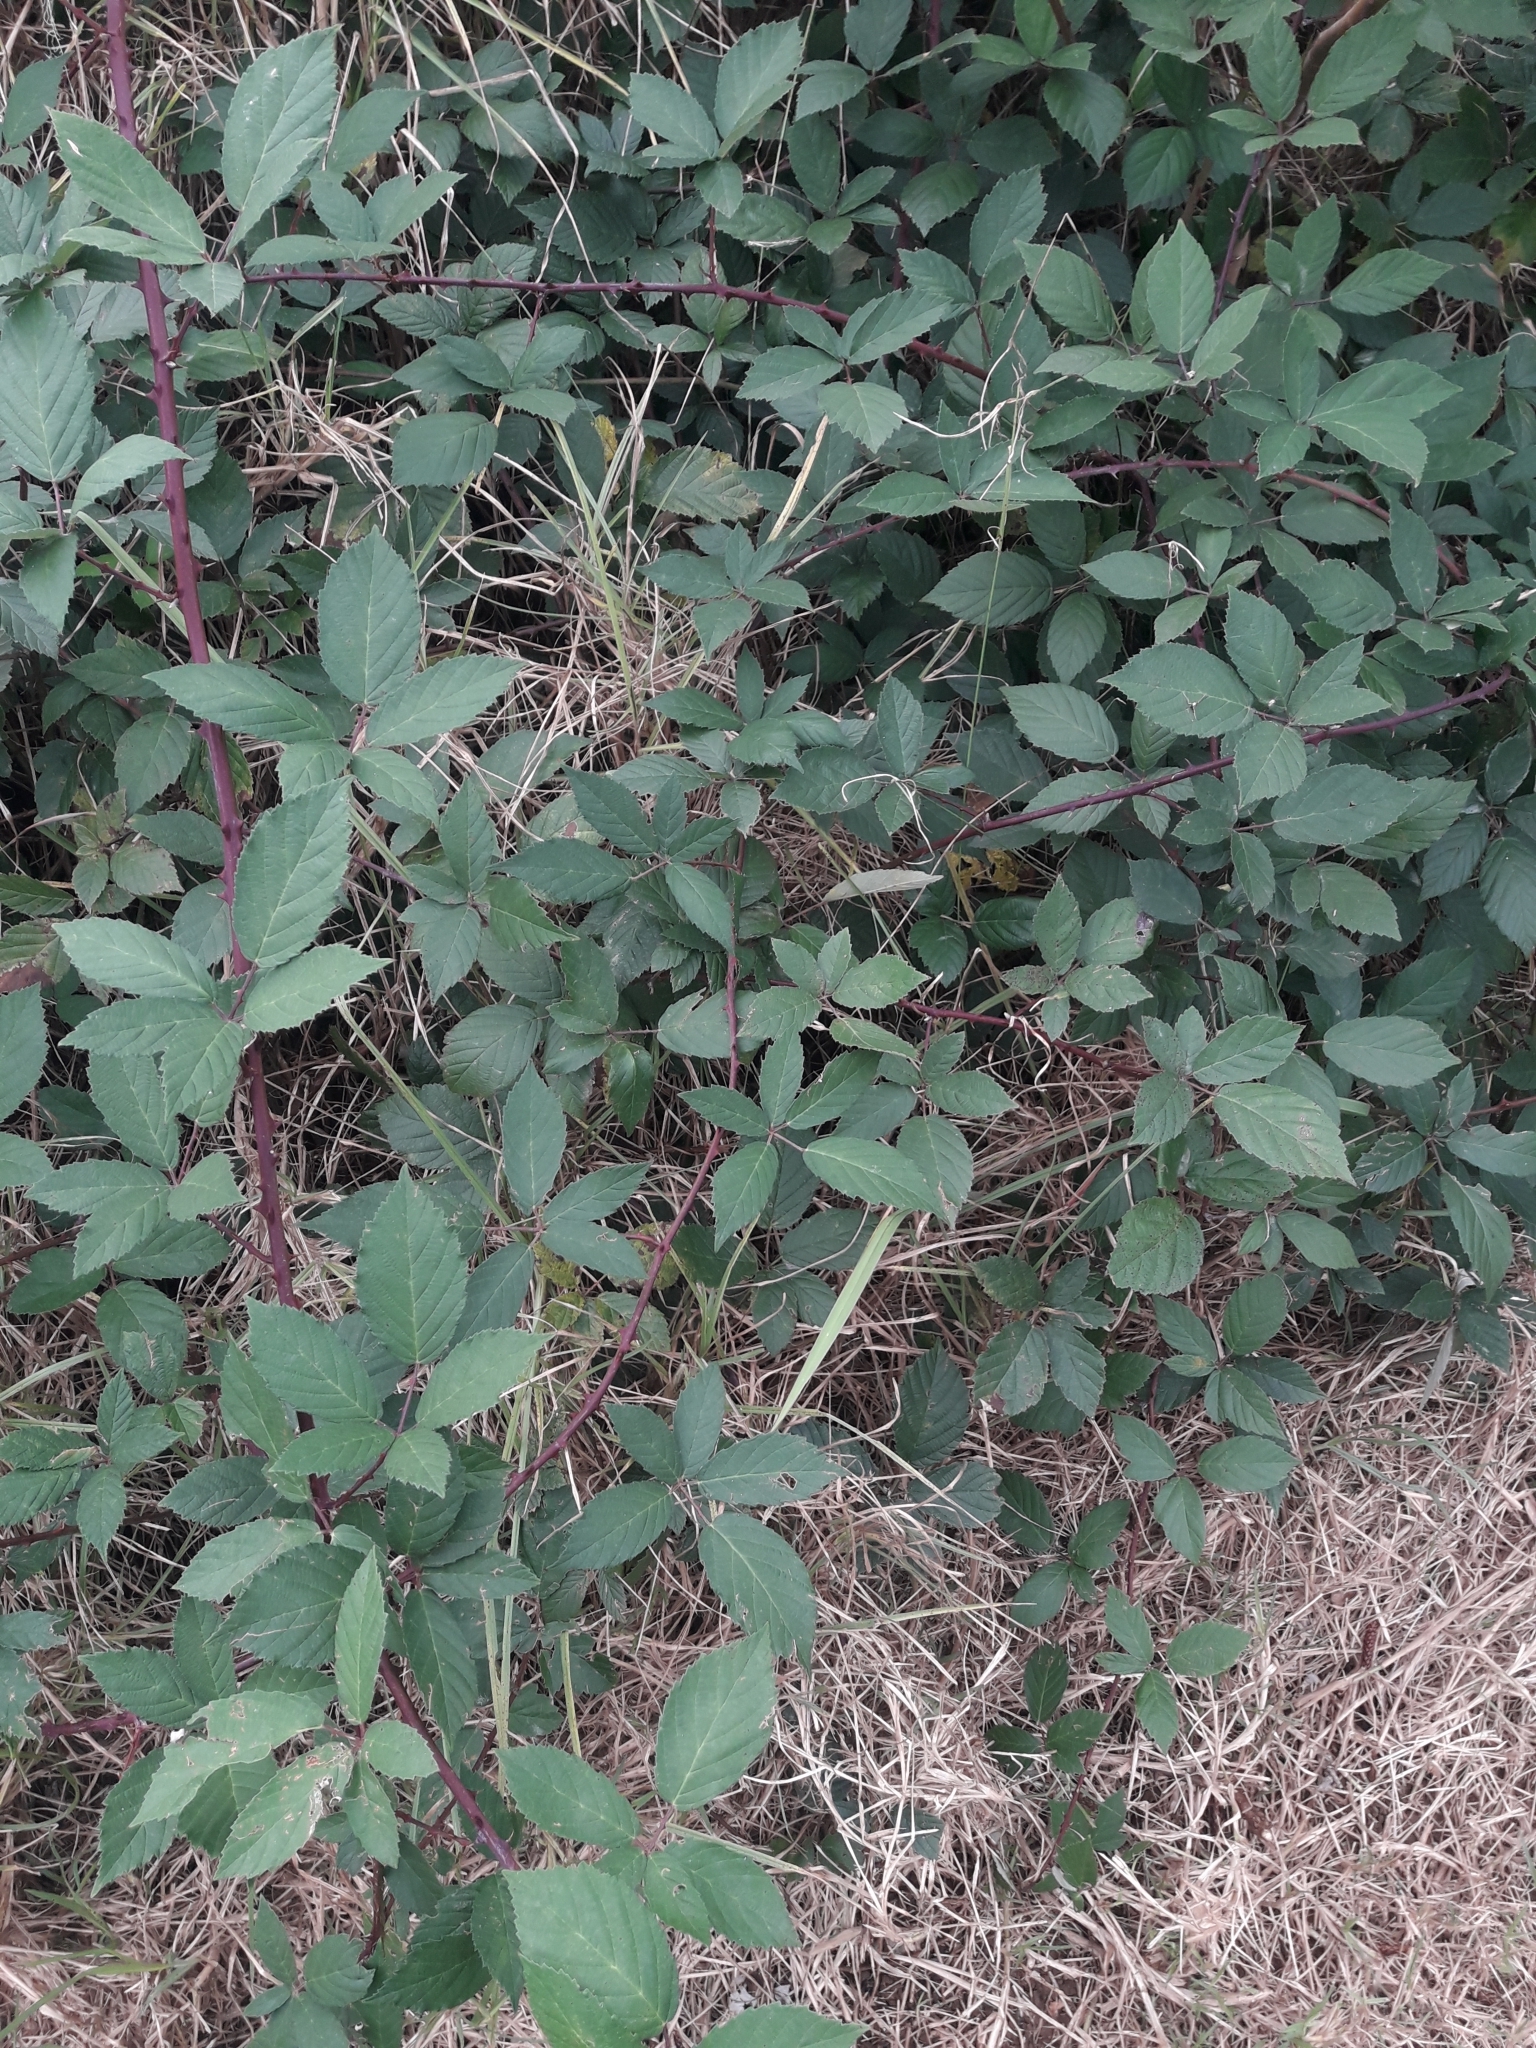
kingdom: Plantae
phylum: Tracheophyta
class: Magnoliopsida
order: Rosales
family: Rosaceae
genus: Rubus
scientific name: Rubus grabowskii
